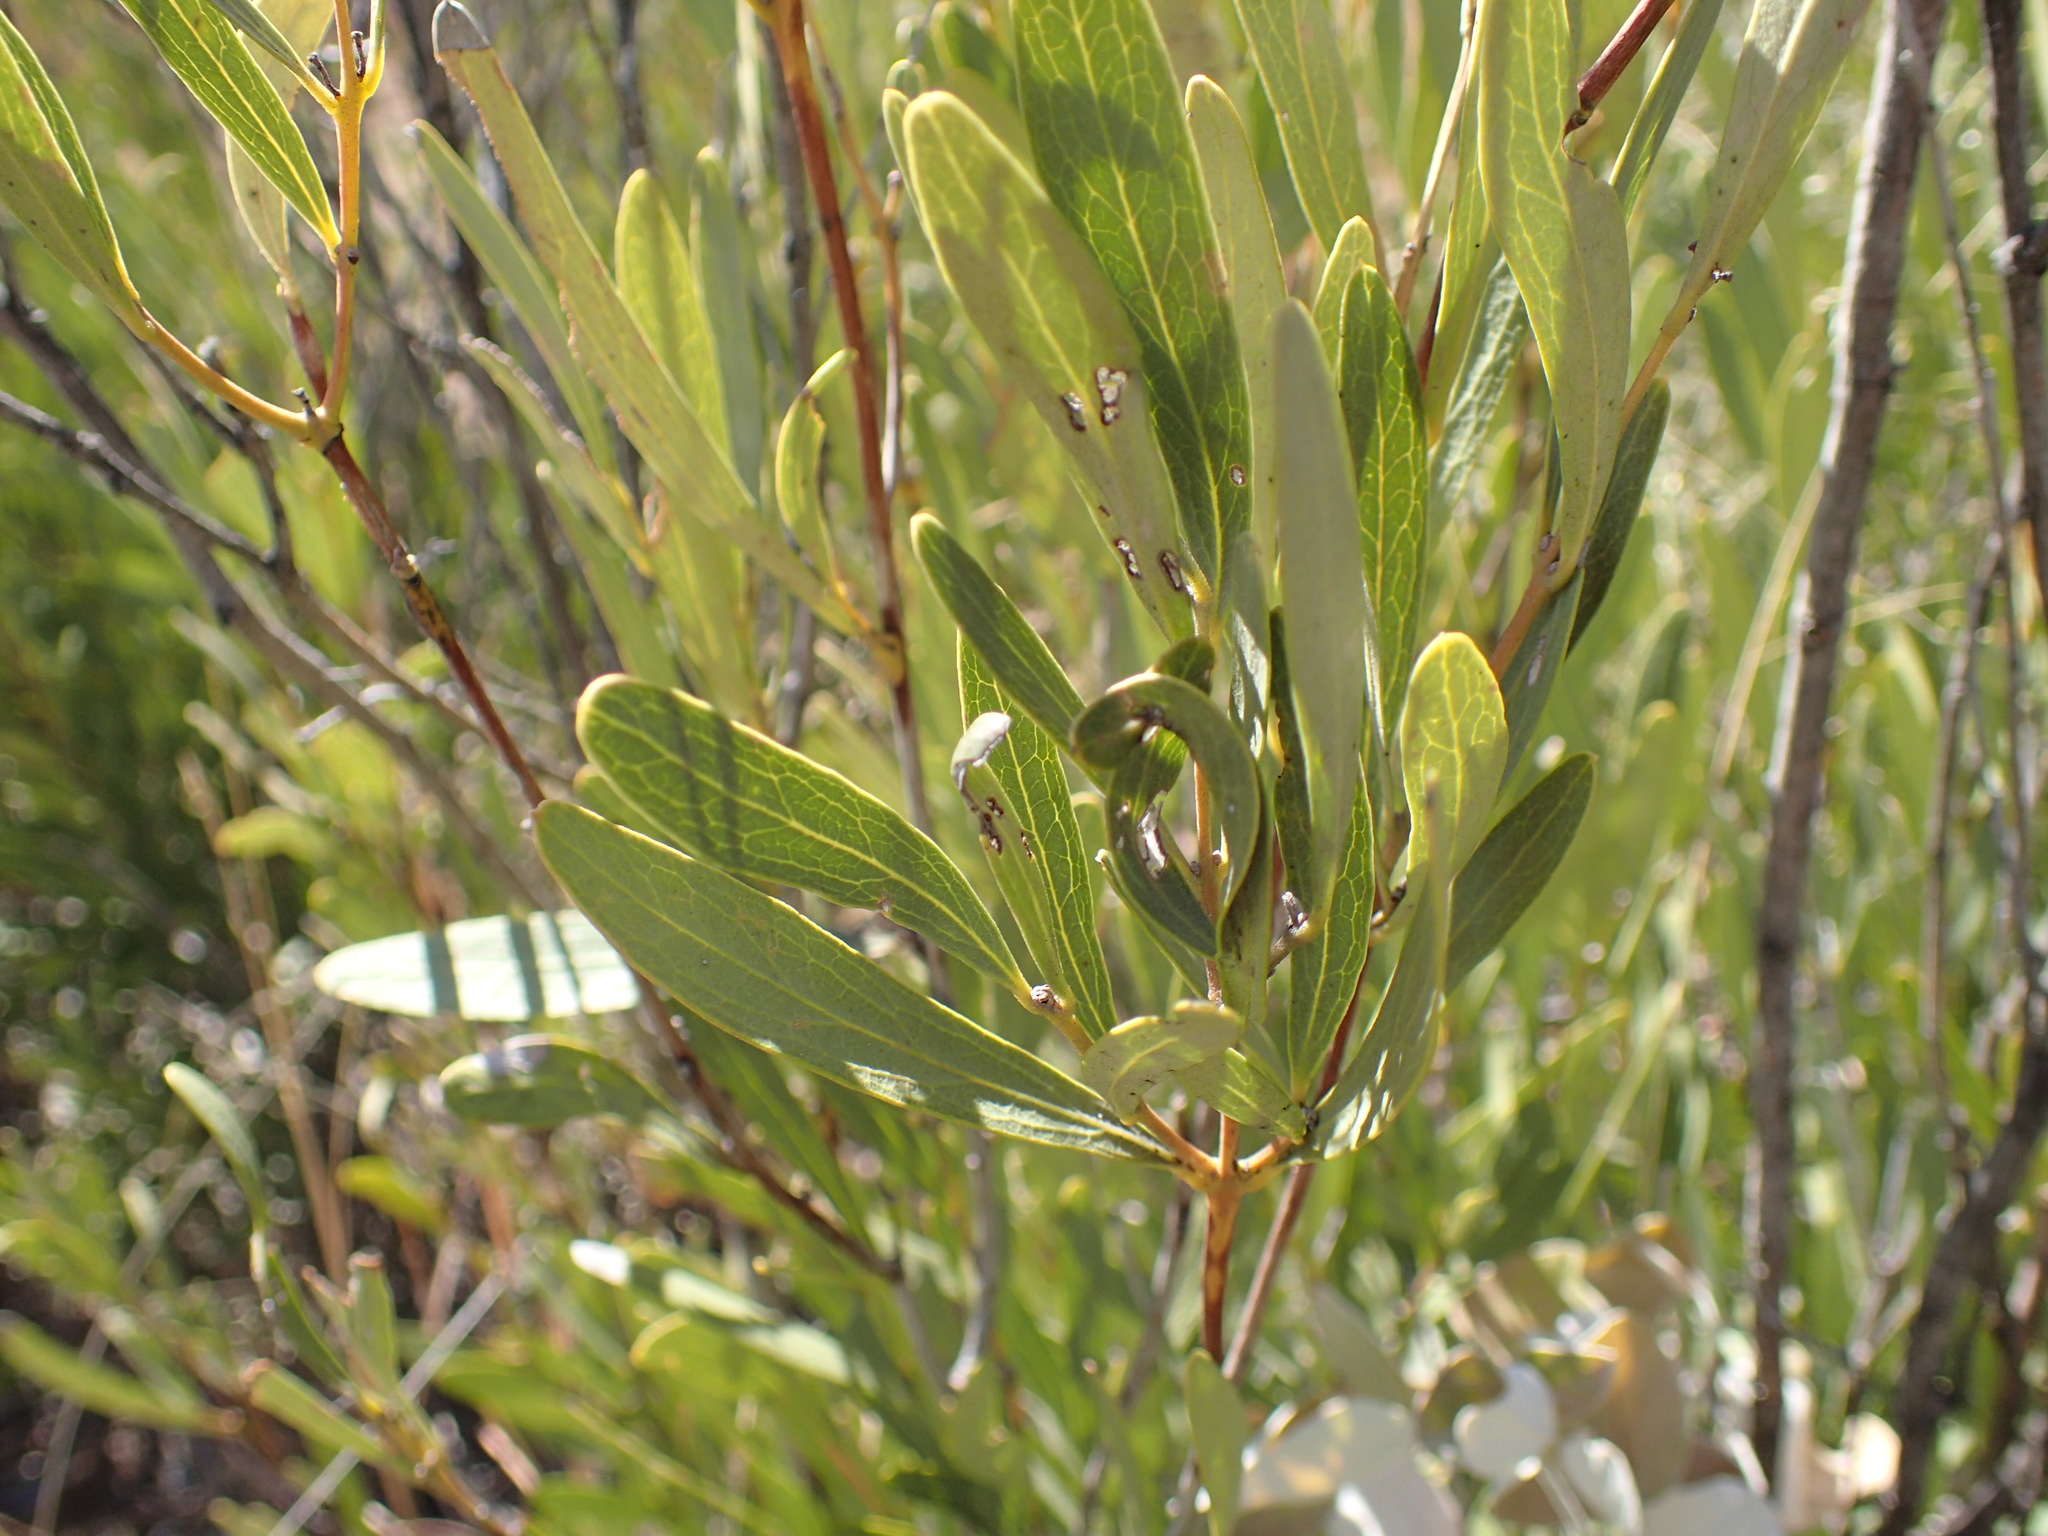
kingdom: Plantae
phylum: Tracheophyta
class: Magnoliopsida
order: Ericales
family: Ebenaceae
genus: Euclea
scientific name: Euclea sekhukhuniensis
